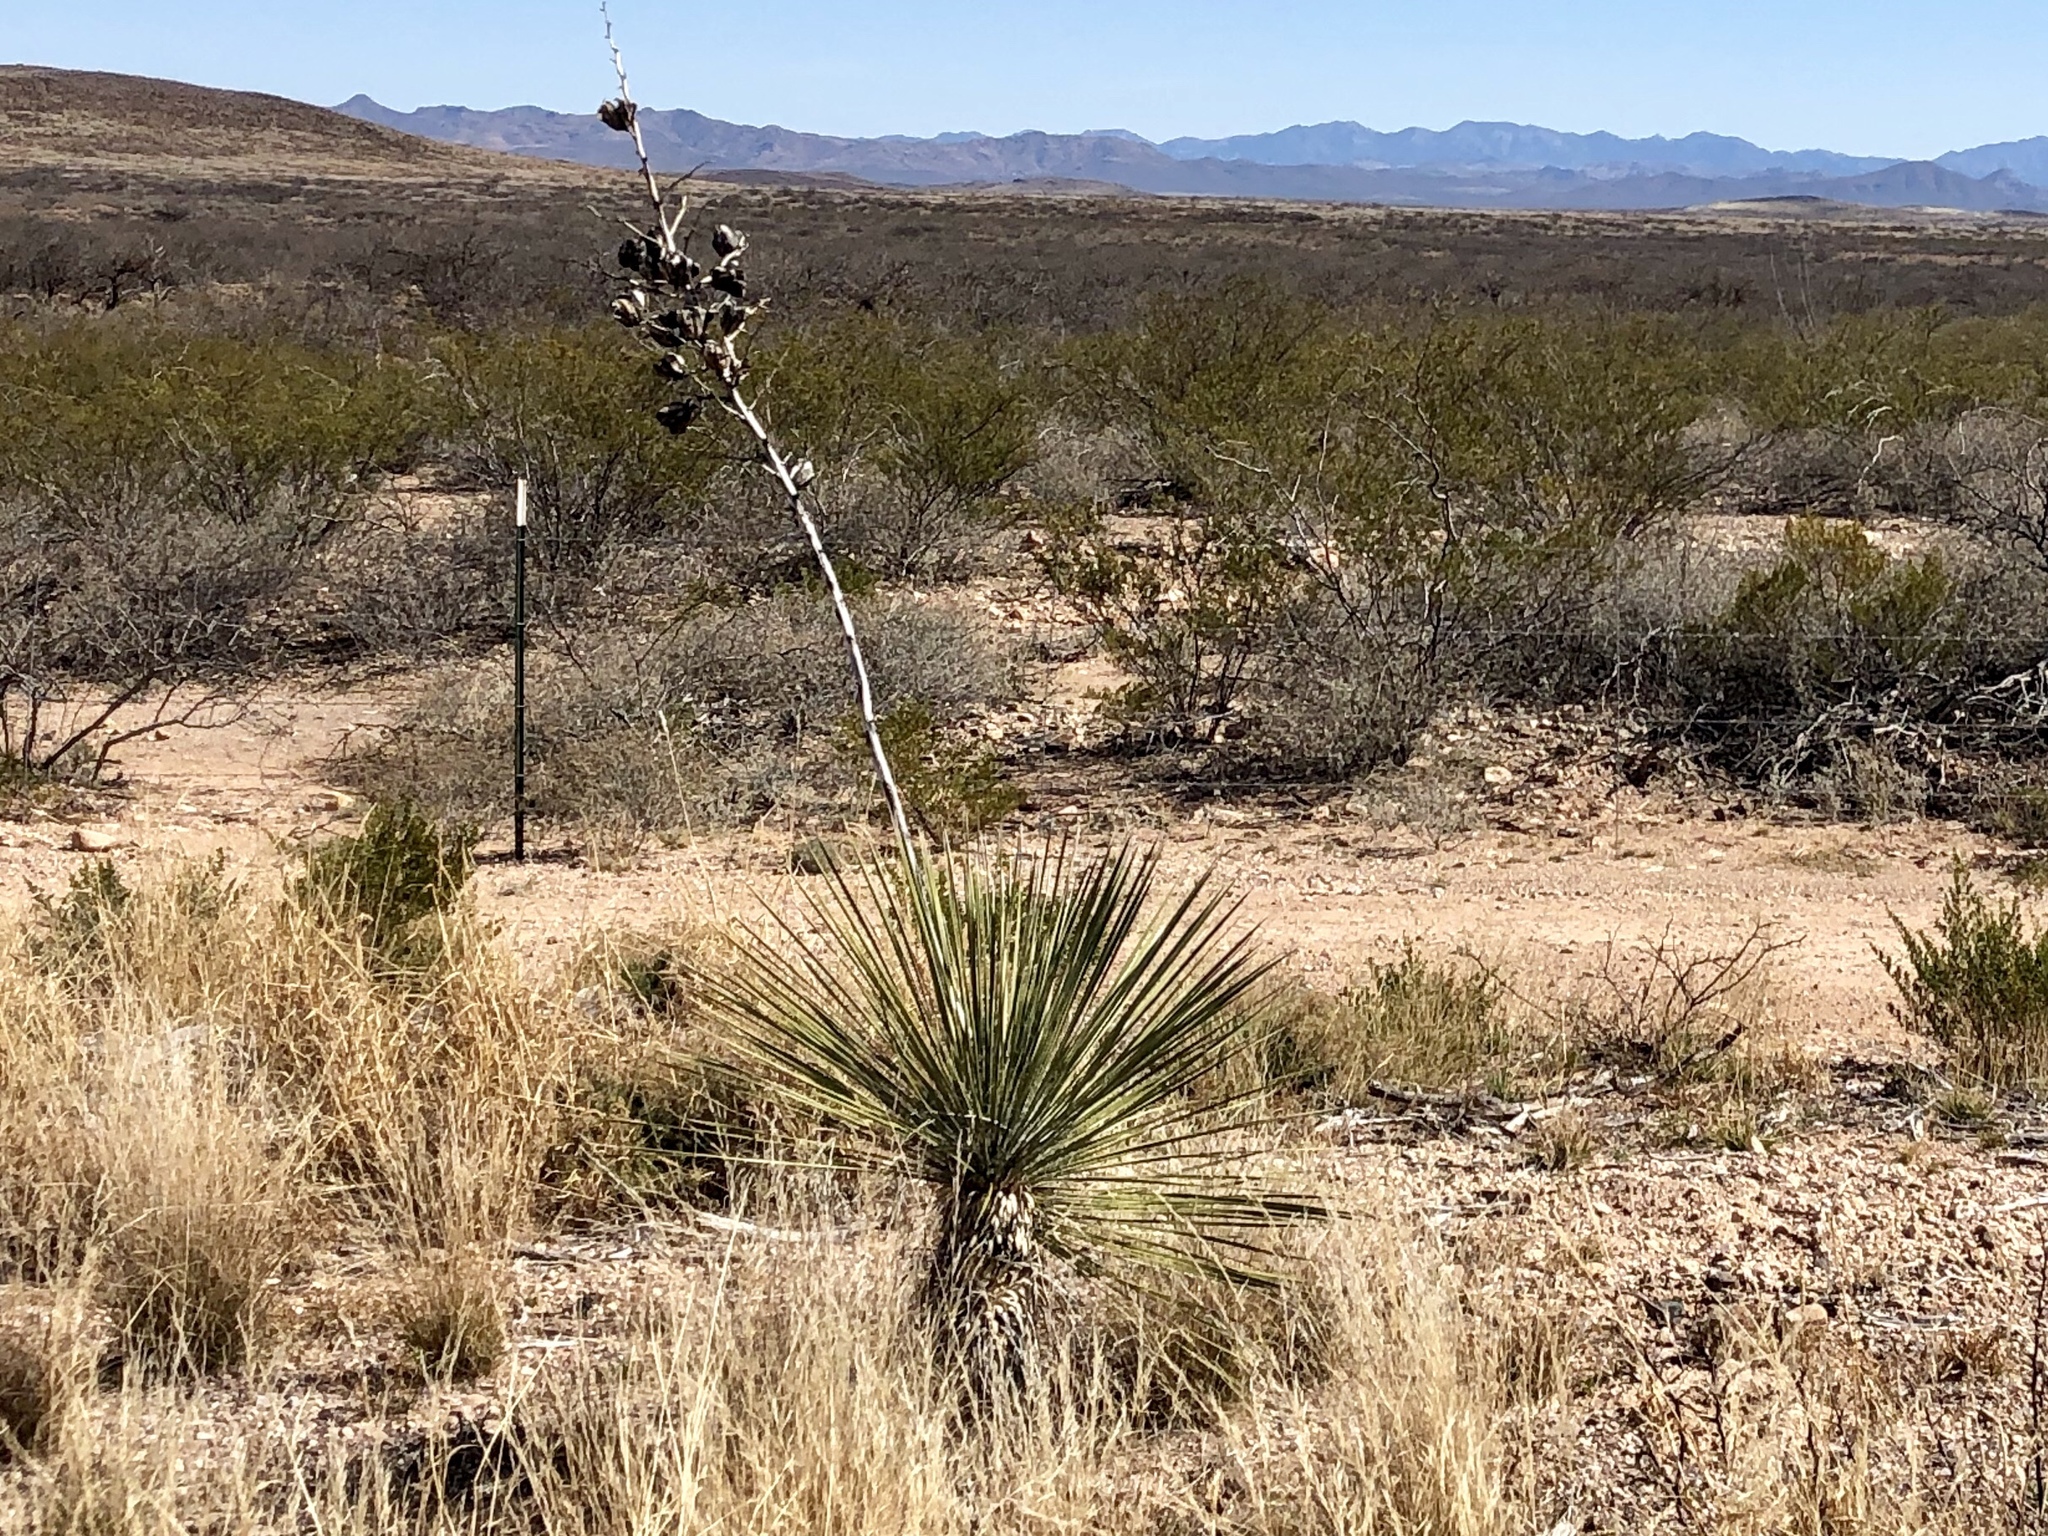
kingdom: Plantae
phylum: Tracheophyta
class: Liliopsida
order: Asparagales
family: Asparagaceae
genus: Yucca
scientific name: Yucca elata
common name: Palmella
